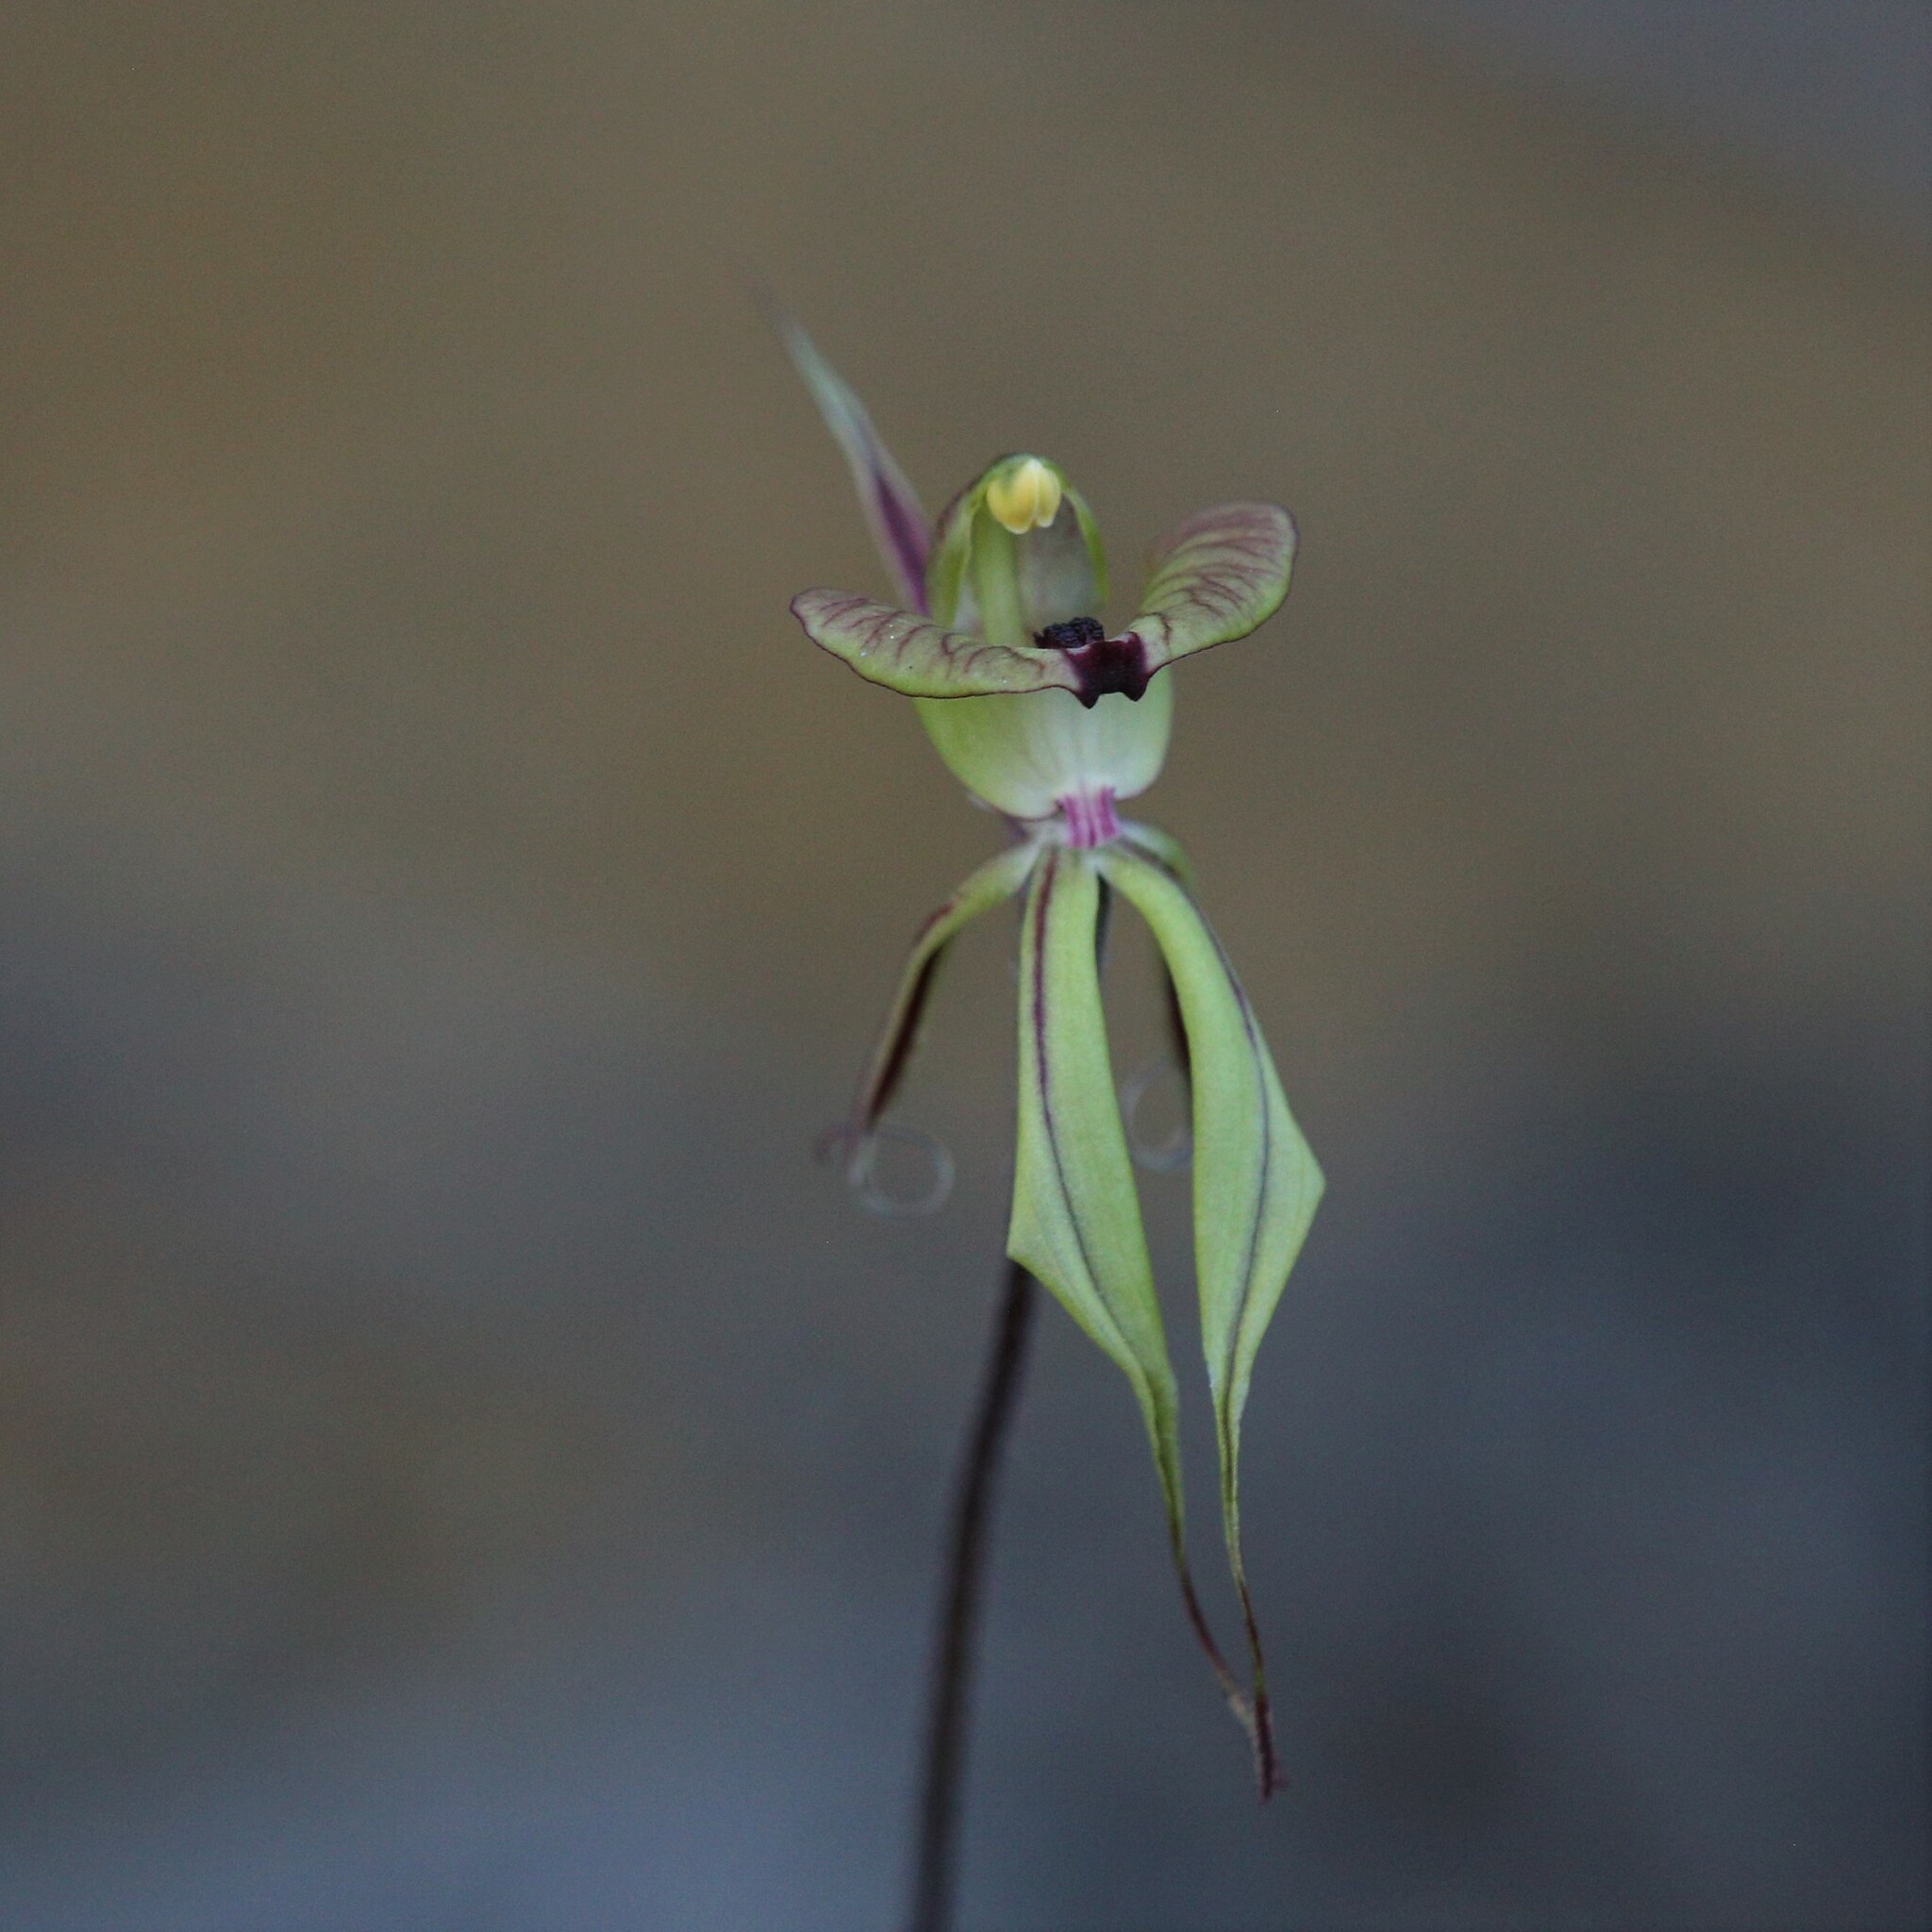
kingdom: Plantae
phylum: Tracheophyta
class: Liliopsida
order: Asparagales
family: Orchidaceae
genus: Caladenia
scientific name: Caladenia doutchiae
